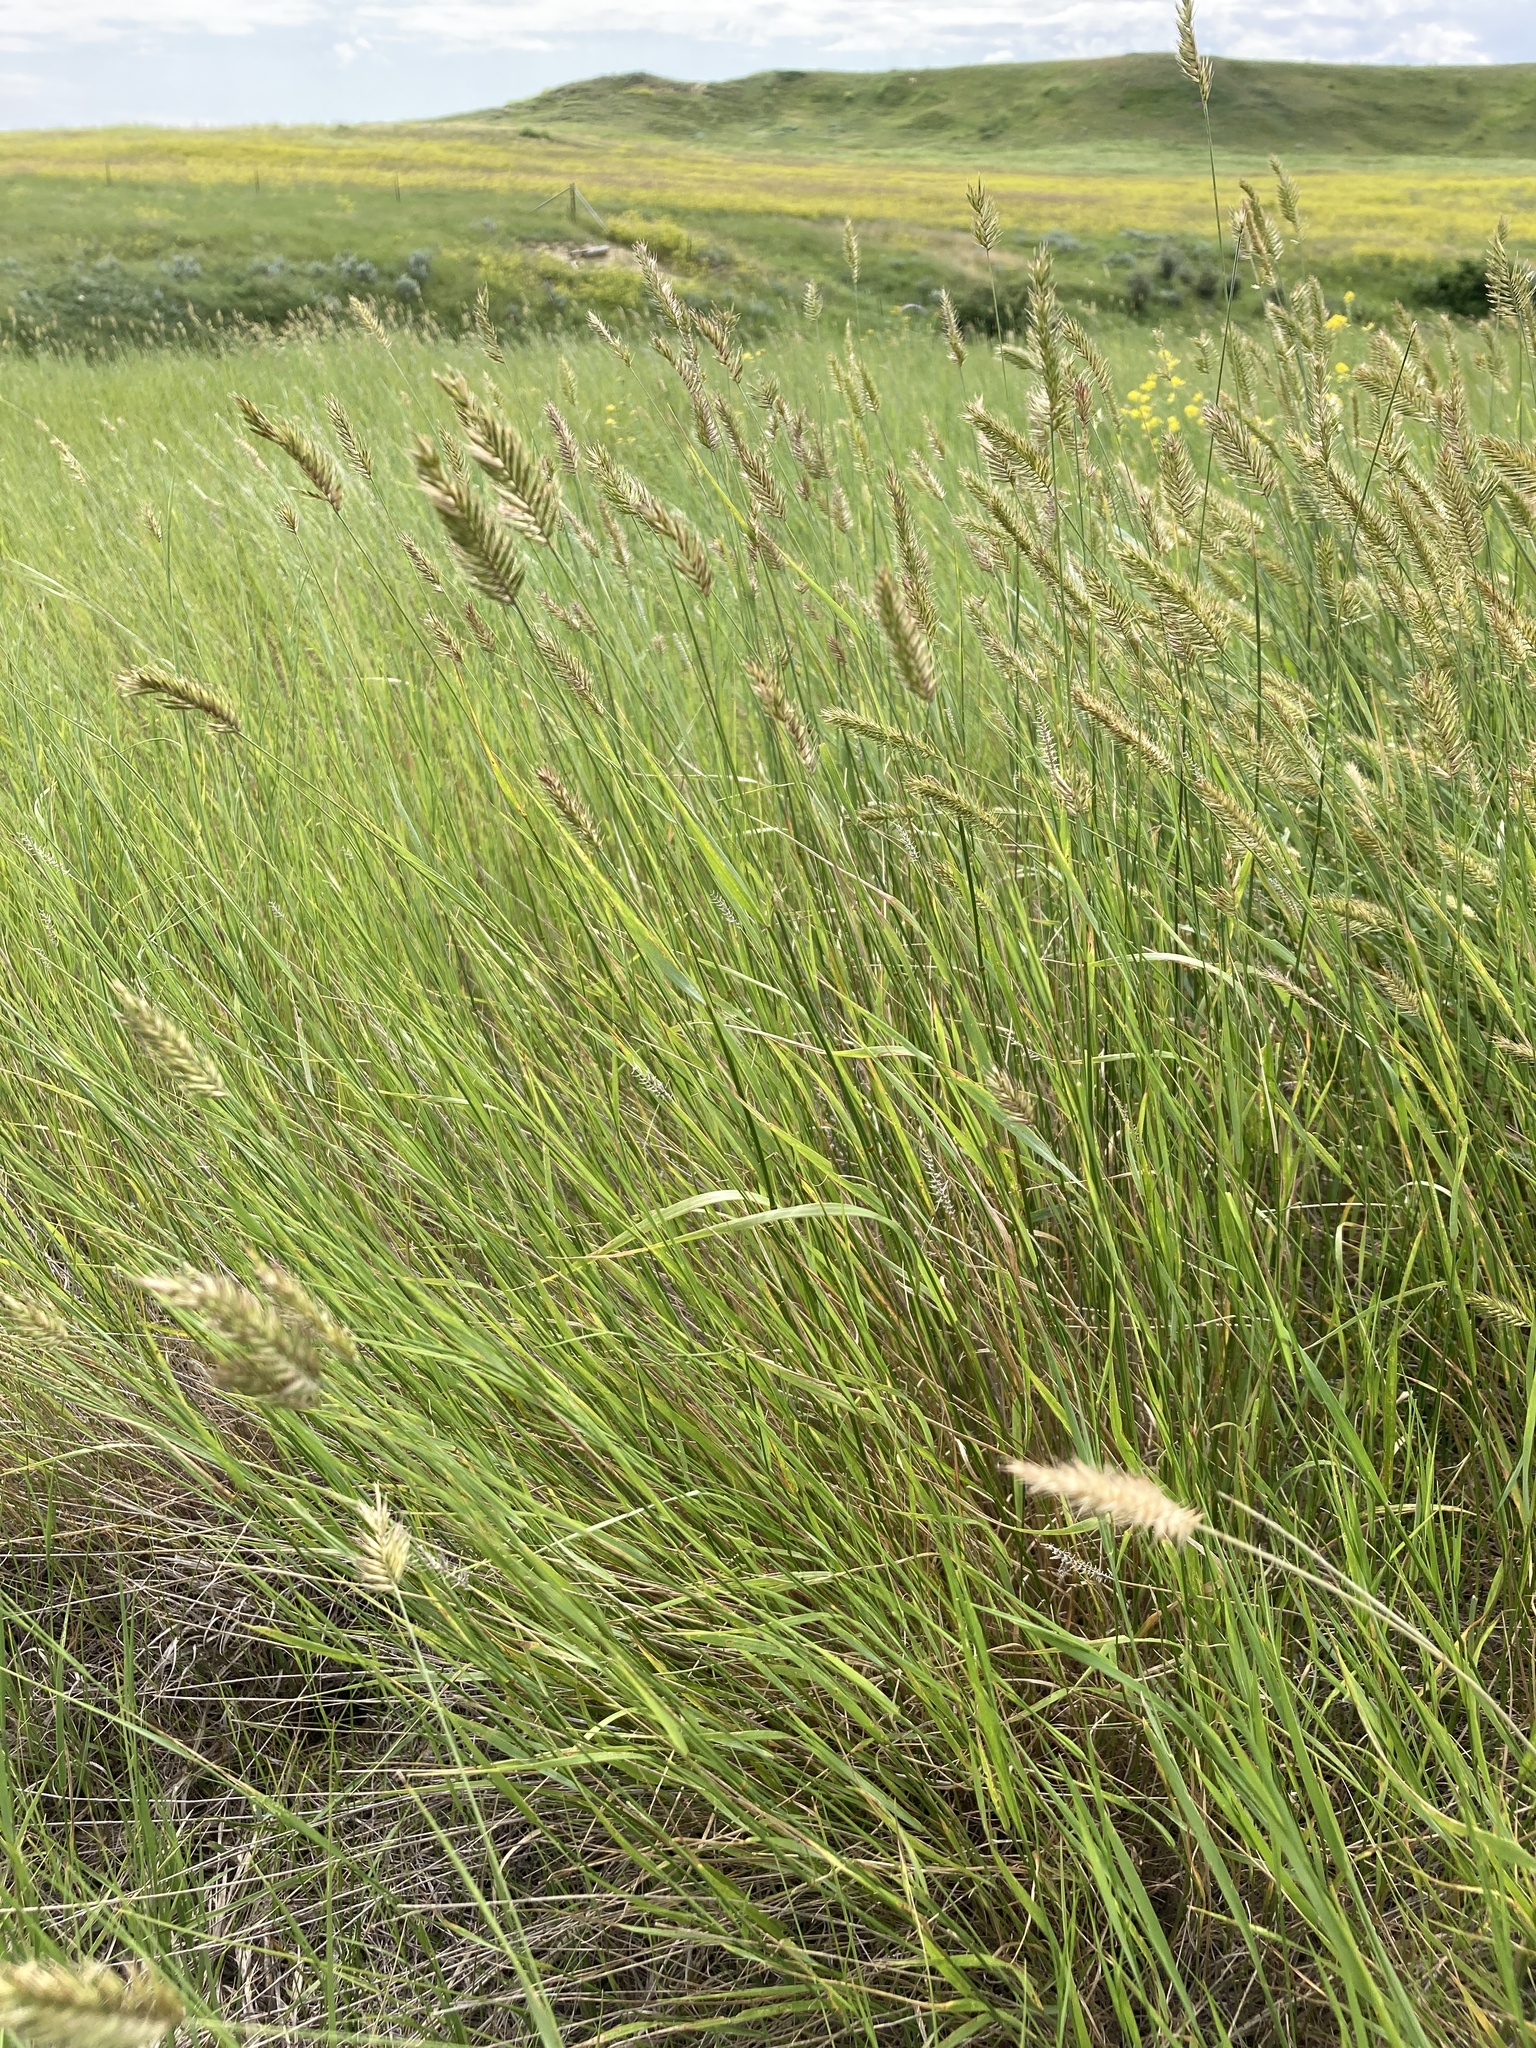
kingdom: Plantae
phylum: Tracheophyta
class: Liliopsida
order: Poales
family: Poaceae
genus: Agropyron
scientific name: Agropyron cristatum
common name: Crested wheatgrass
